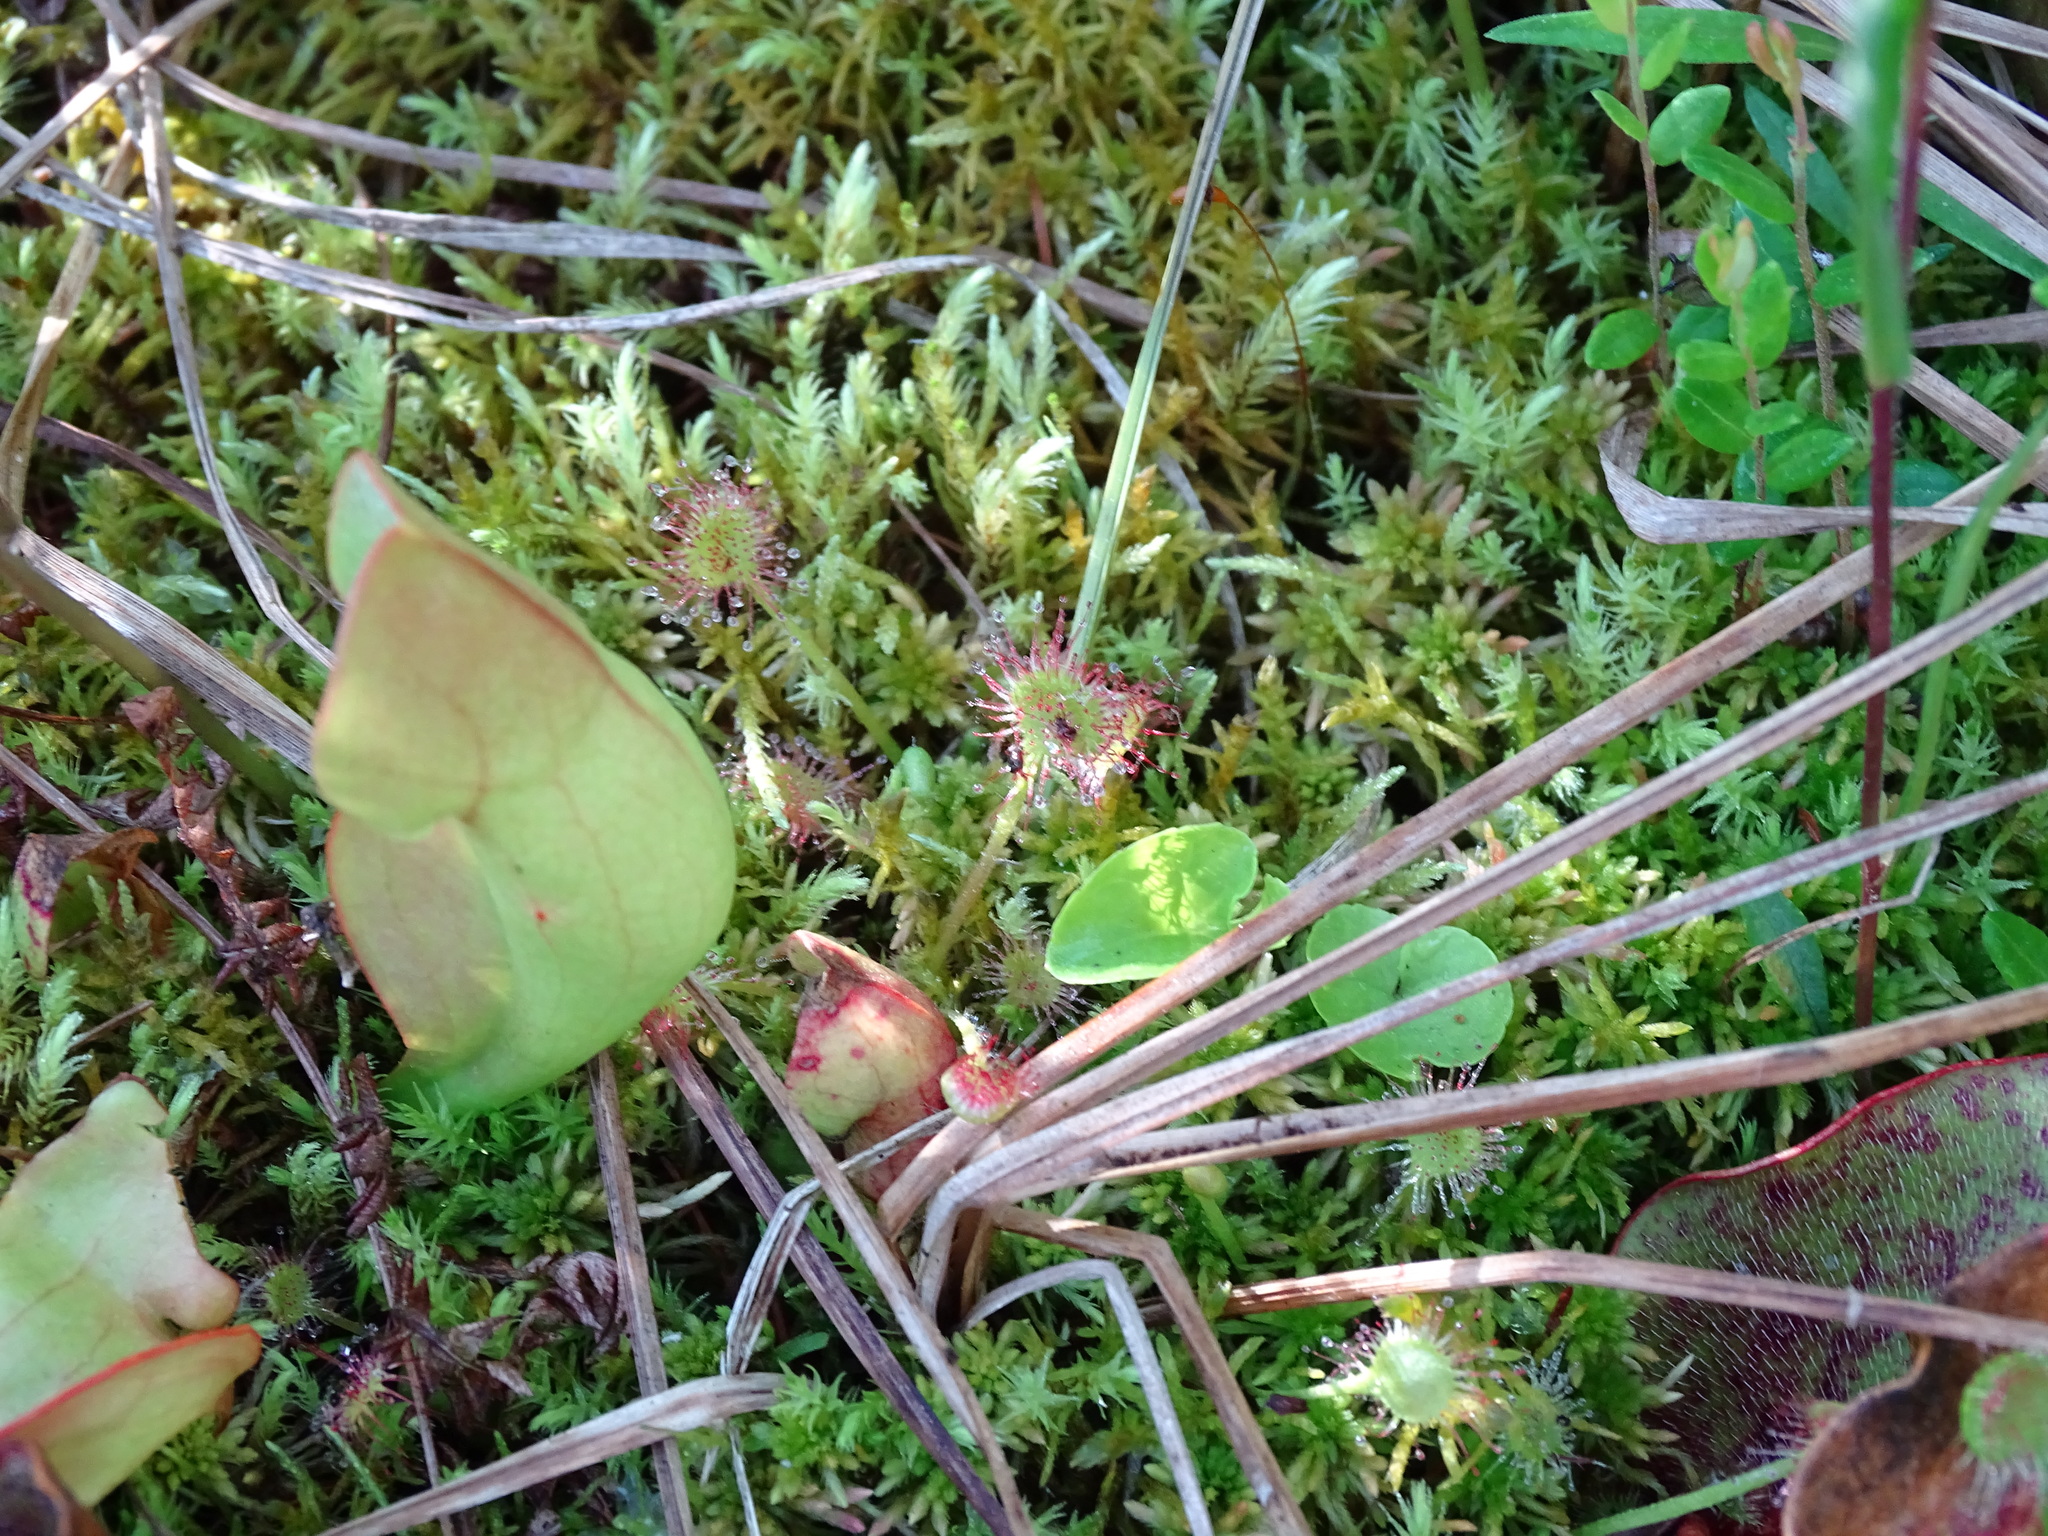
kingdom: Plantae
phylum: Tracheophyta
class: Magnoliopsida
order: Caryophyllales
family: Droseraceae
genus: Drosera
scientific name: Drosera rotundifolia
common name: Round-leaved sundew
